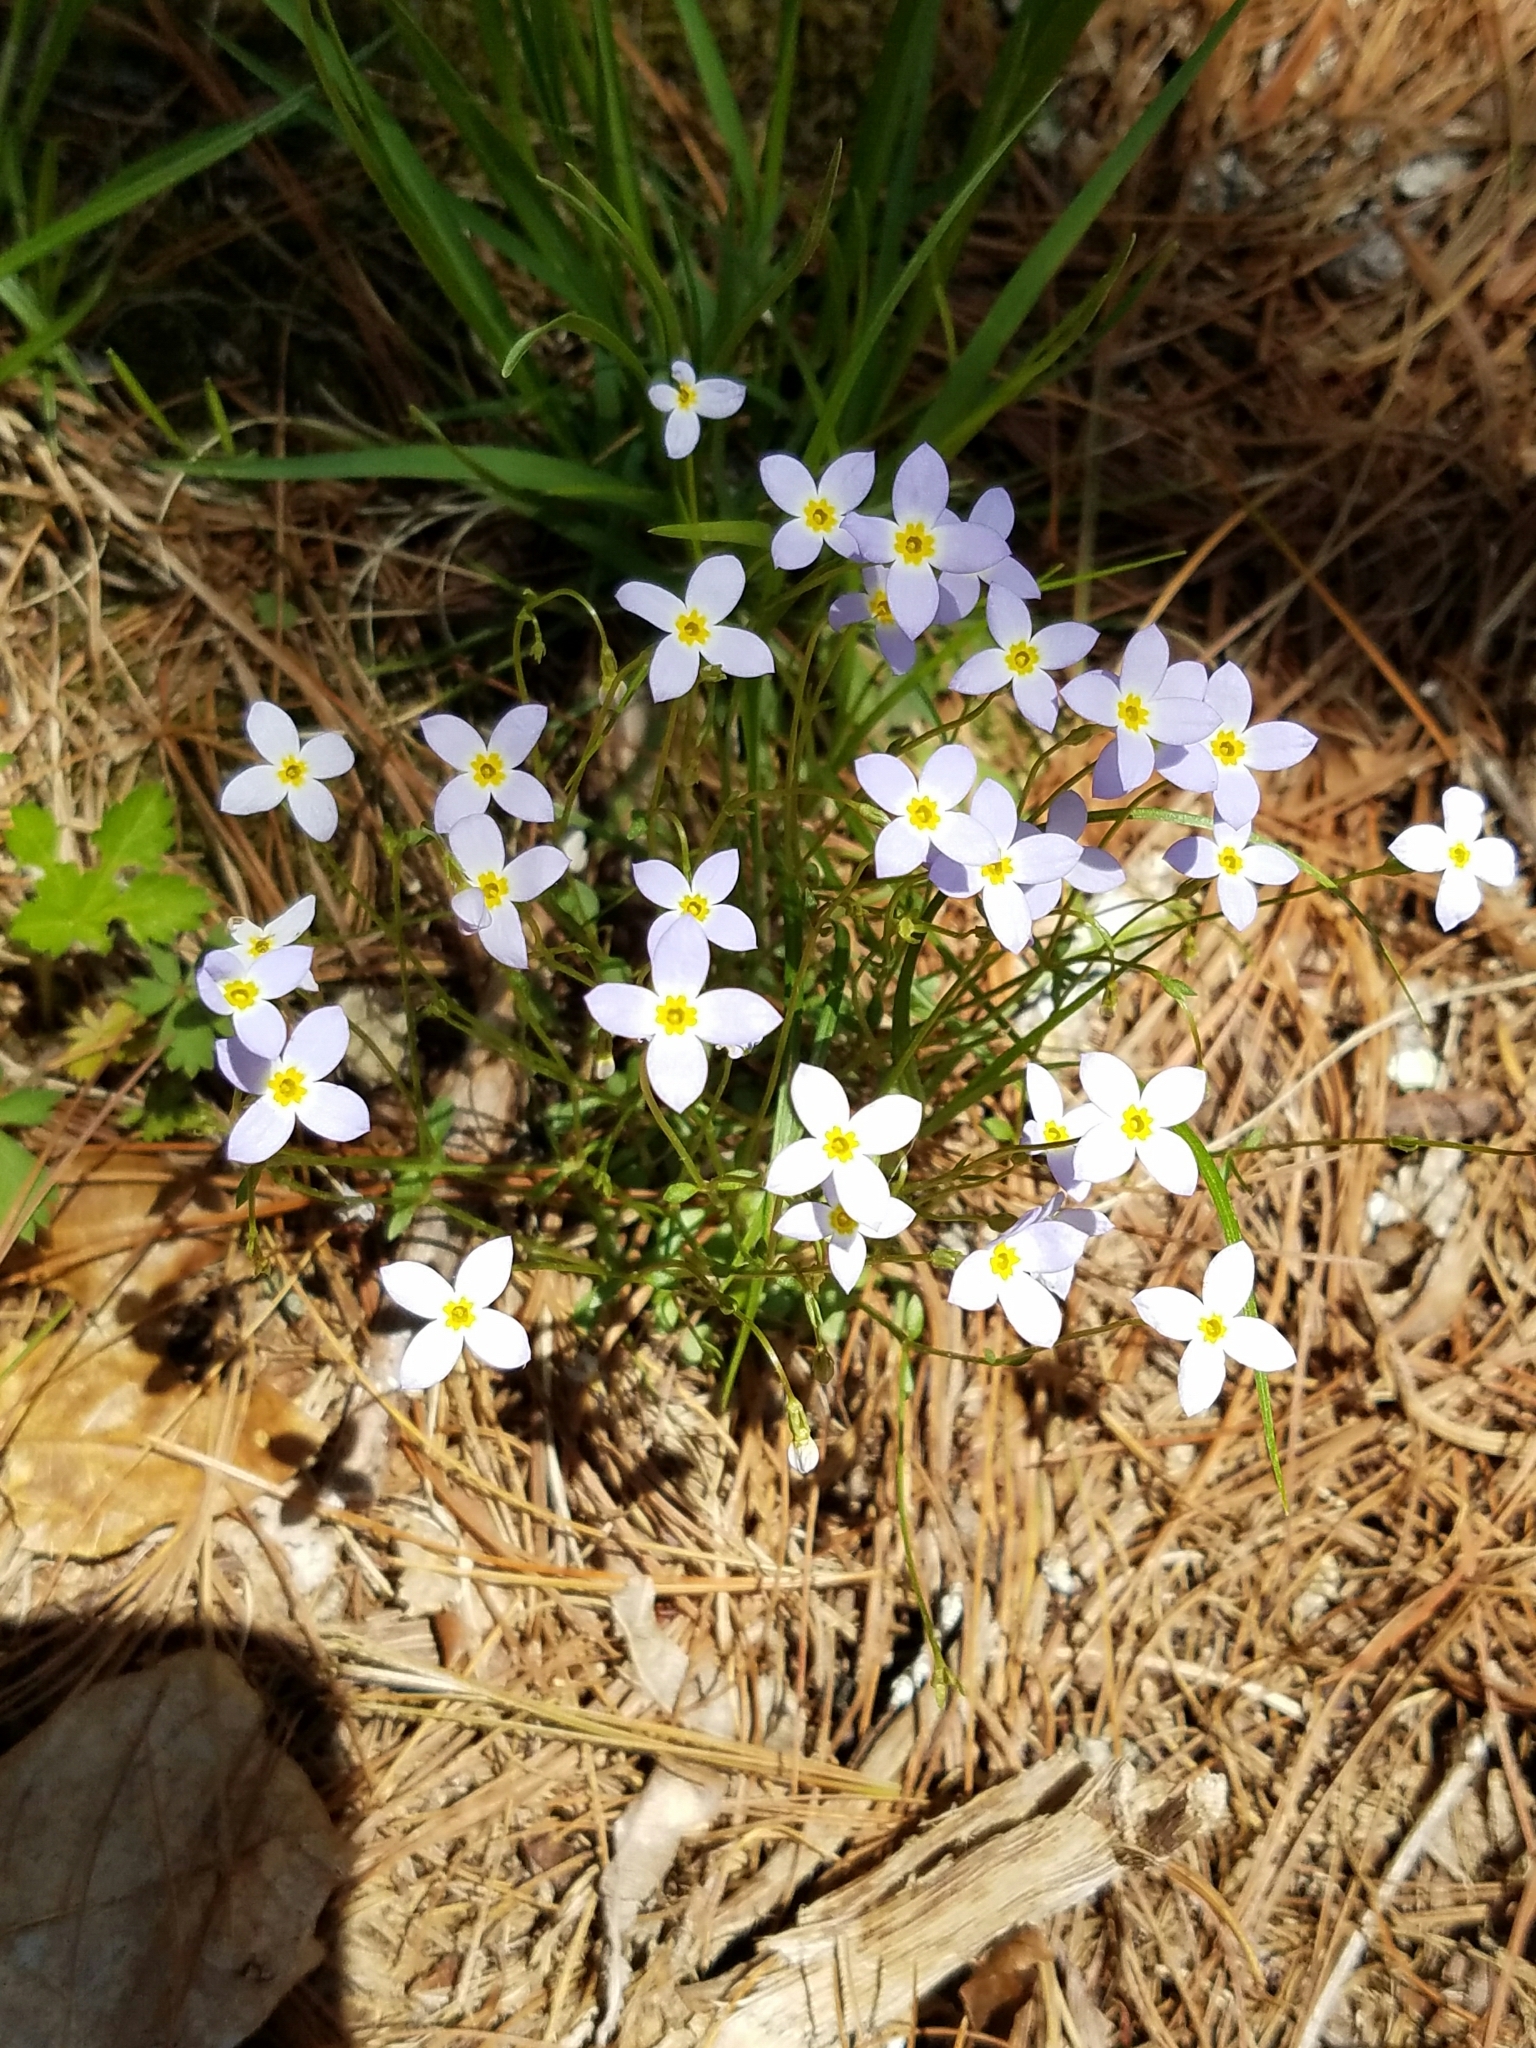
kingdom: Plantae
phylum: Tracheophyta
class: Magnoliopsida
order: Gentianales
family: Rubiaceae
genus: Houstonia
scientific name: Houstonia caerulea
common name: Bluets
